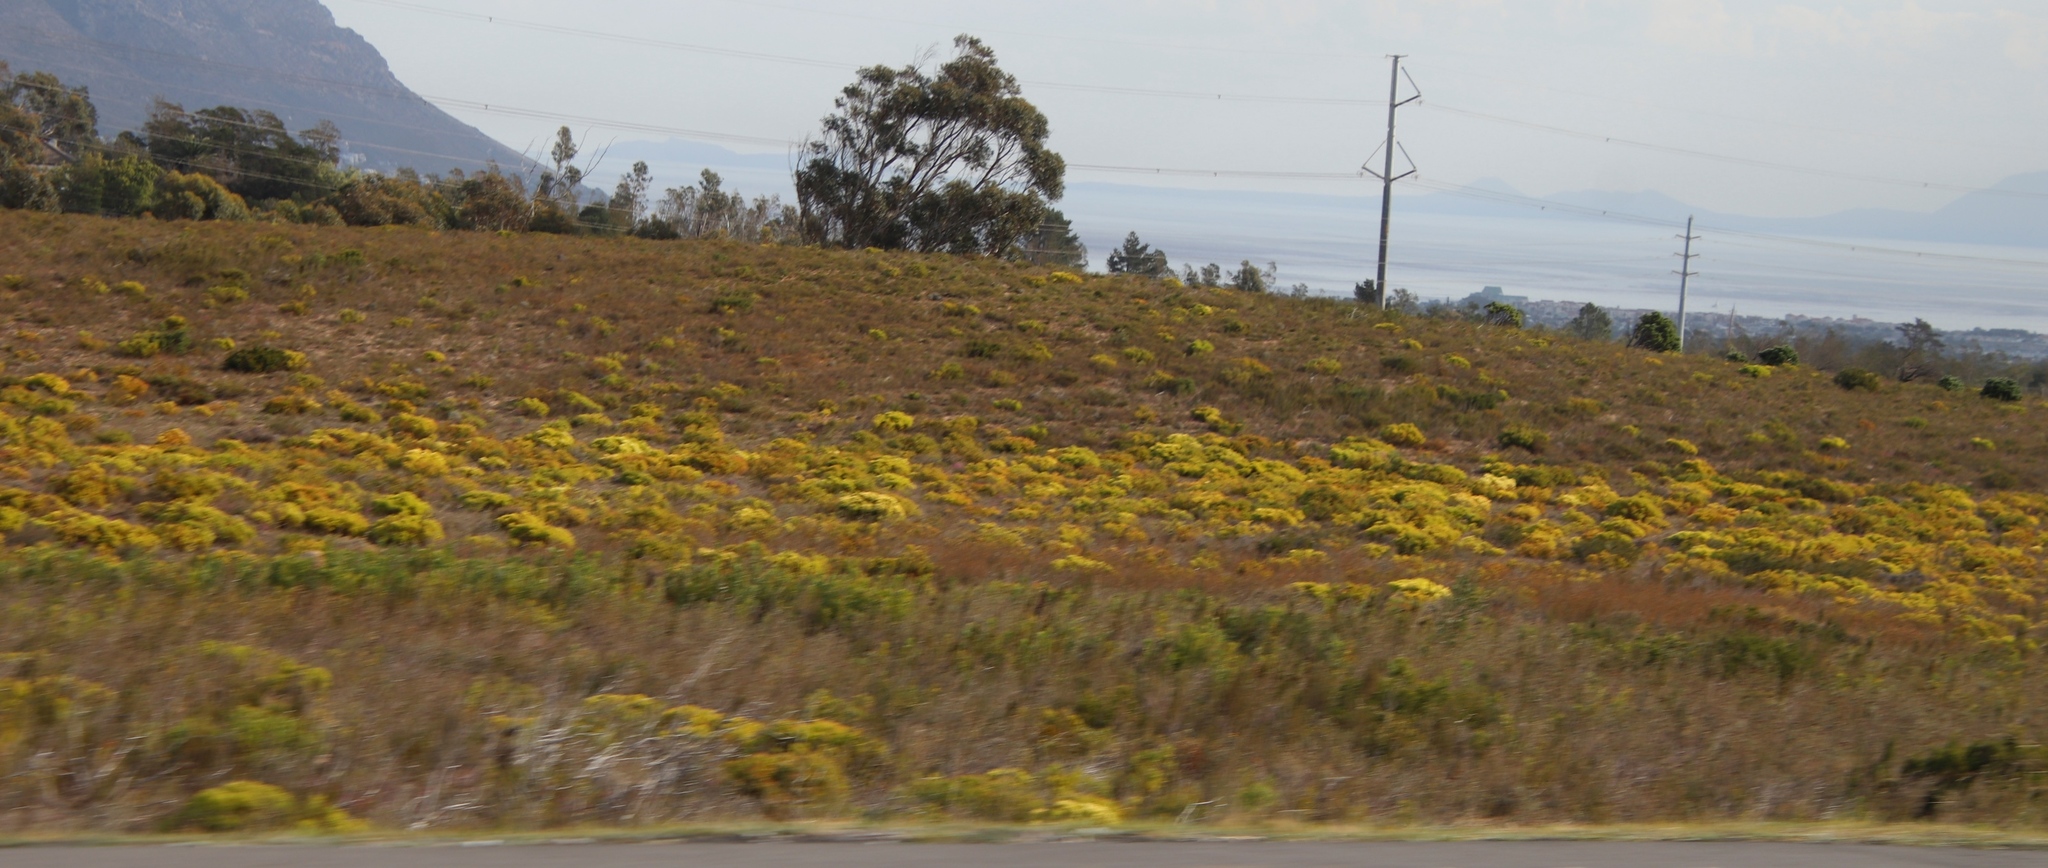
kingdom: Plantae
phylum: Tracheophyta
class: Magnoliopsida
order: Proteales
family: Proteaceae
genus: Leucadendron
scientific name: Leucadendron salignum
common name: Common sunshine conebush
